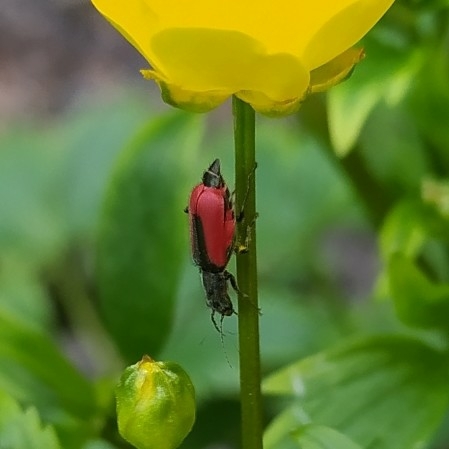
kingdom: Animalia
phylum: Arthropoda
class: Insecta
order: Coleoptera
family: Melyridae
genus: Malachius
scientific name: Malachius aeneus
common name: Scarlet malachite beetle
